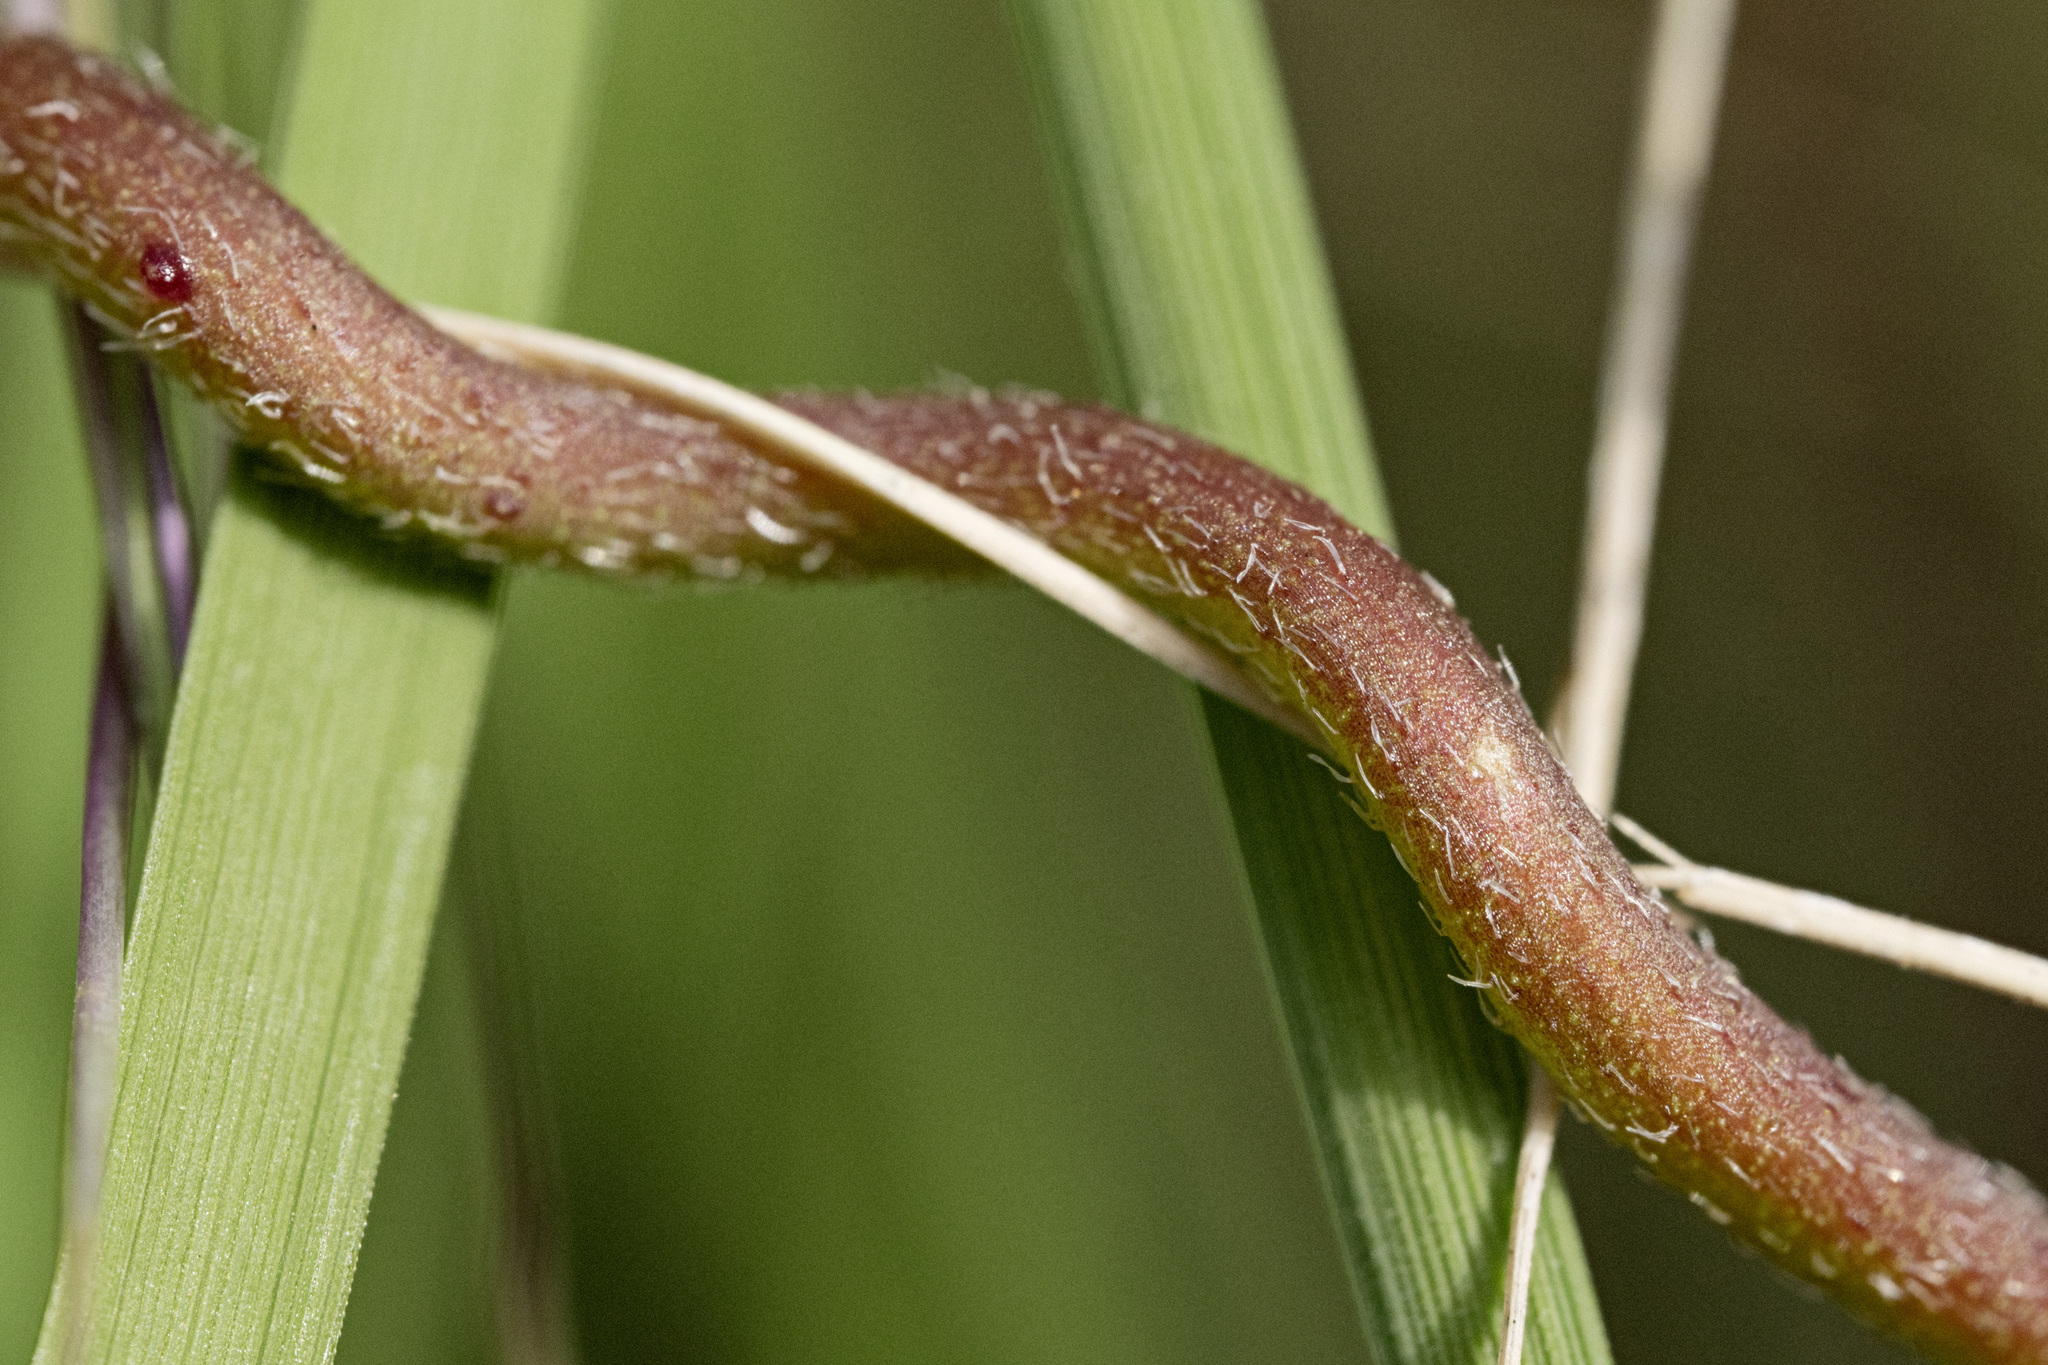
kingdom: Plantae
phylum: Tracheophyta
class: Magnoliopsida
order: Solanales
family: Convolvulaceae
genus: Ipomoea
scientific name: Ipomoea gilana
